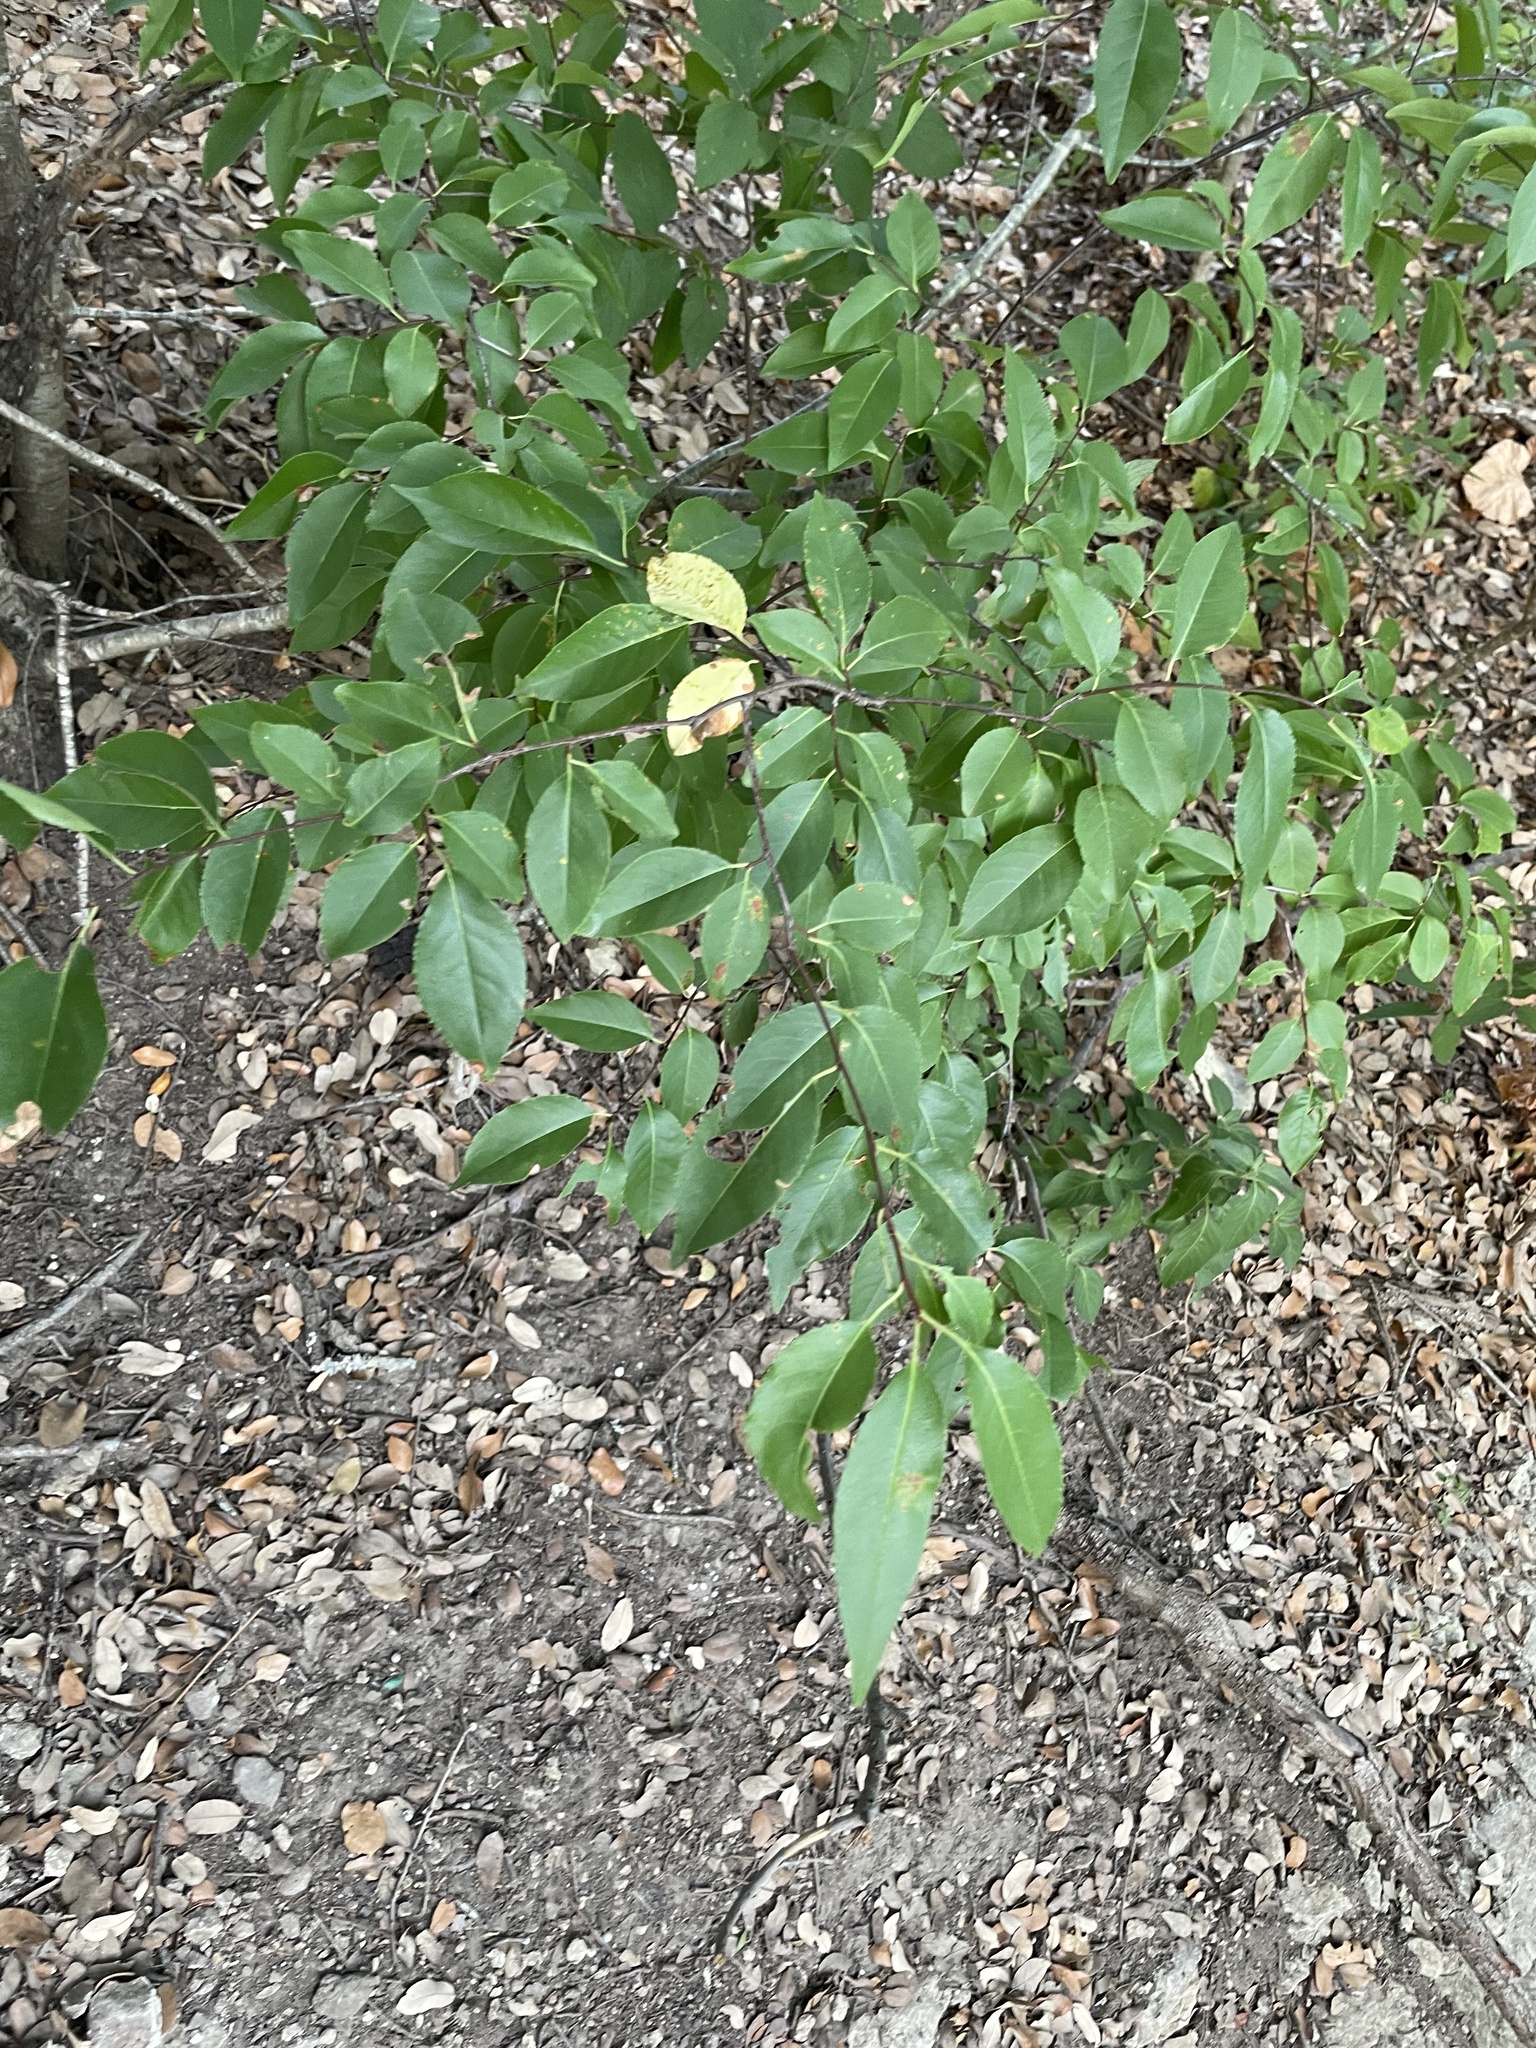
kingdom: Plantae
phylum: Tracheophyta
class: Magnoliopsida
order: Rosales
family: Rosaceae
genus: Prunus
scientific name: Prunus serotina
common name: Black cherry
